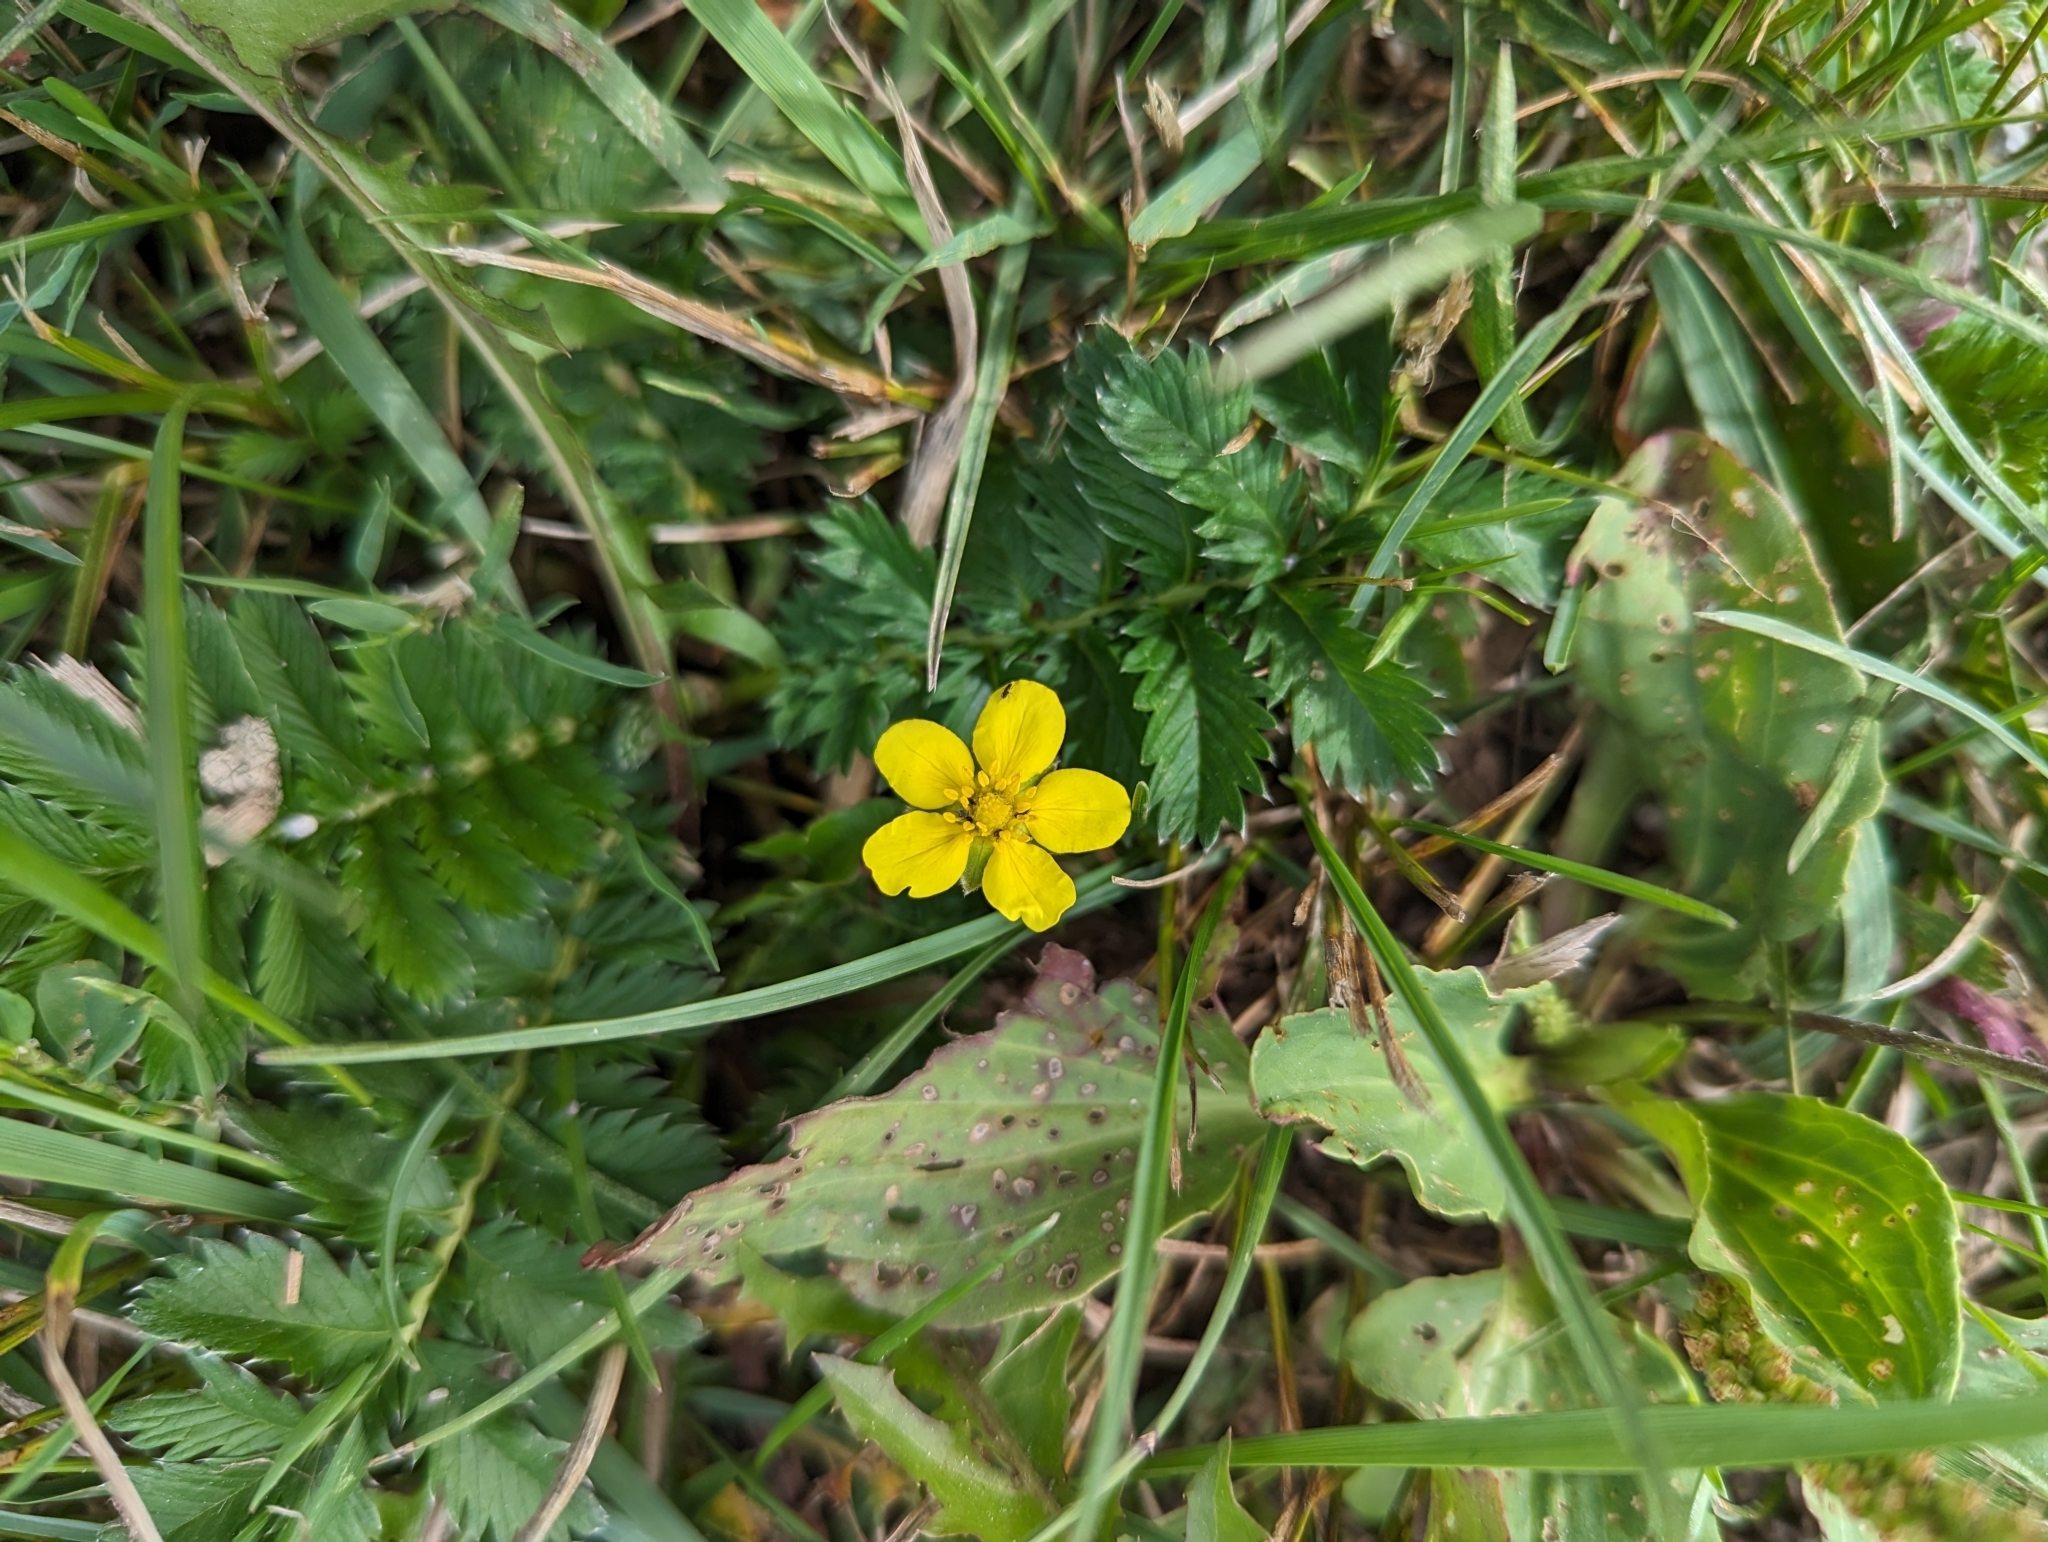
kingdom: Plantae
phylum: Tracheophyta
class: Magnoliopsida
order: Rosales
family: Rosaceae
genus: Argentina
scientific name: Argentina anserina
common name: Common silverweed
